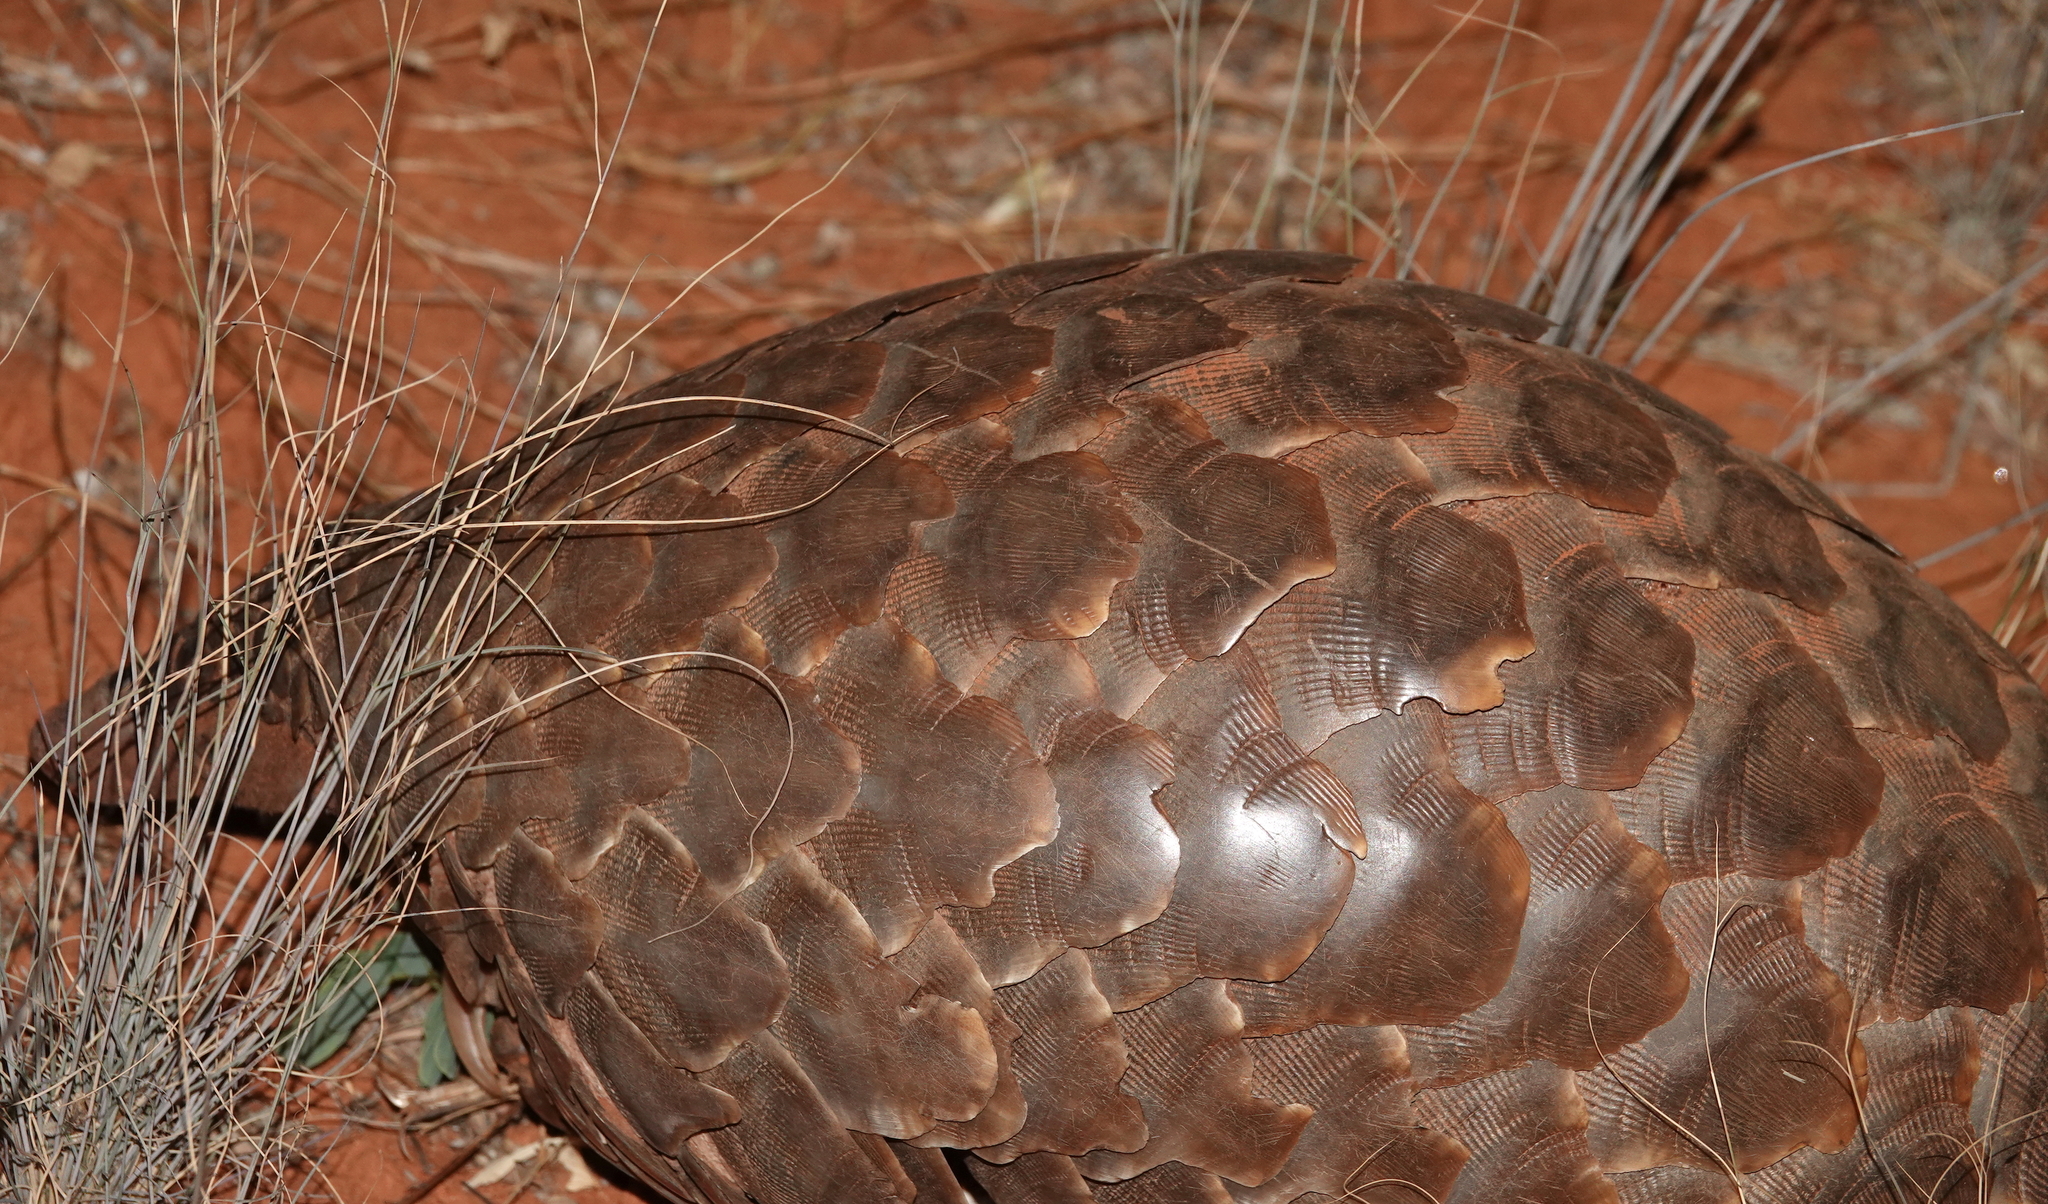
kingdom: Animalia
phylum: Chordata
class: Mammalia
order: Pholidota
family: Manidae
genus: Manis
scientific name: Manis temminckii
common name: Ground pangolin
